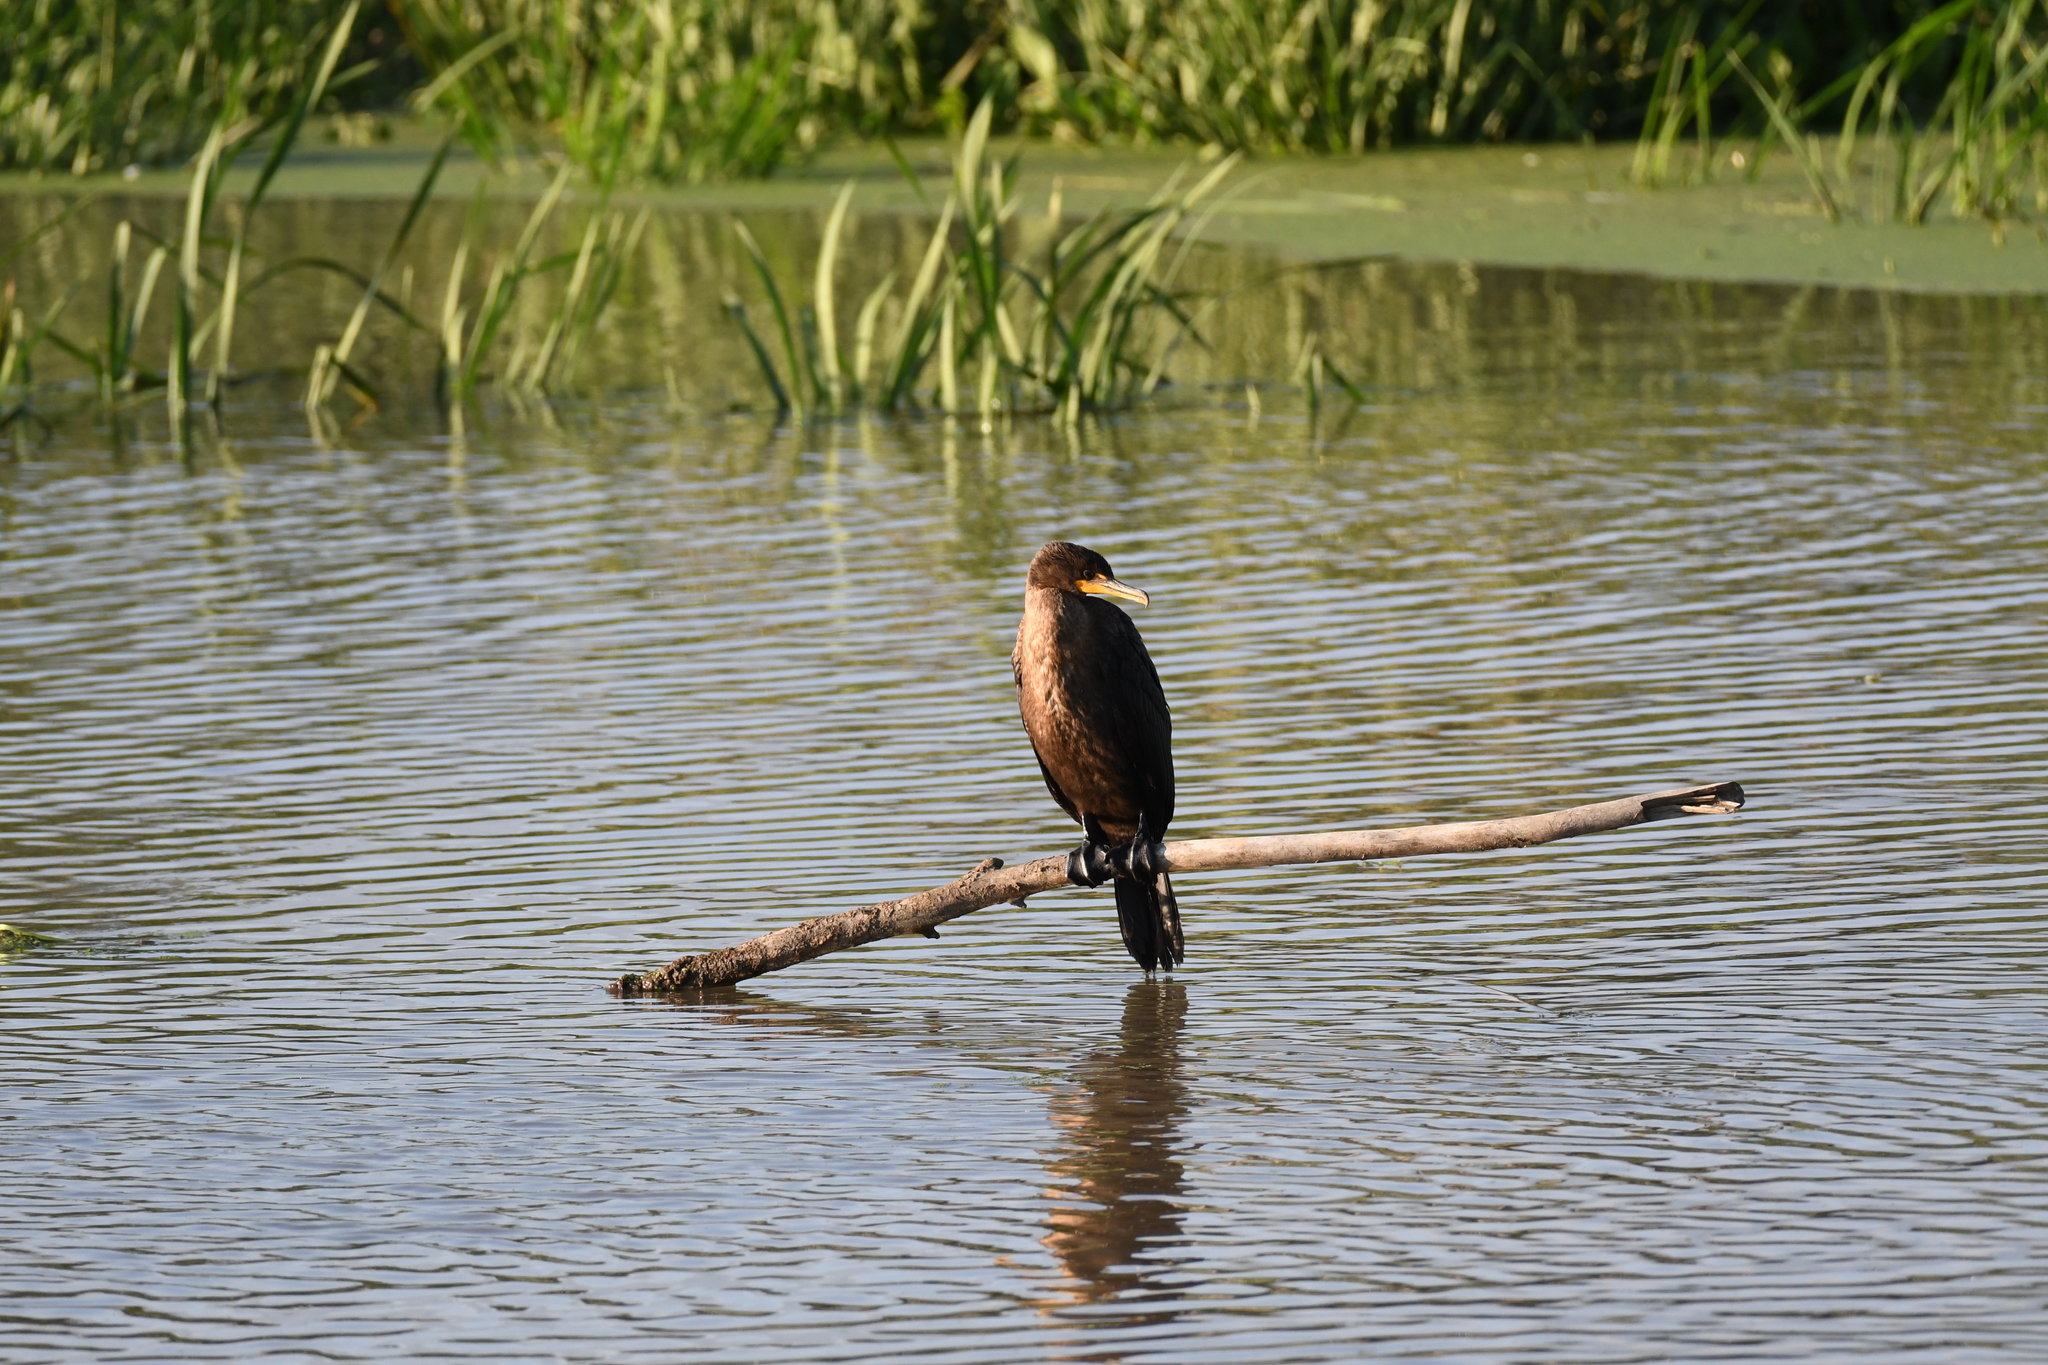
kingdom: Animalia
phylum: Chordata
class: Aves
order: Suliformes
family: Phalacrocoracidae
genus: Phalacrocorax
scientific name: Phalacrocorax auritus
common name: Double-crested cormorant
